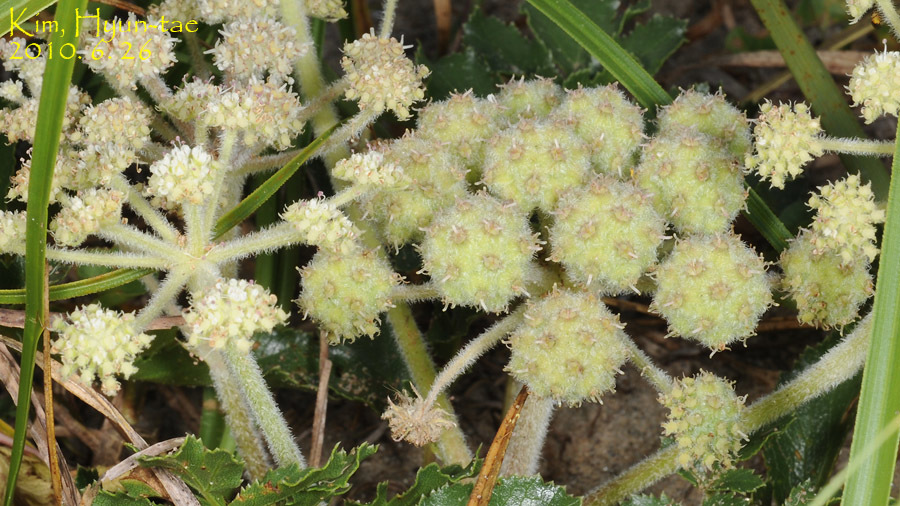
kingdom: Plantae
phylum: Tracheophyta
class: Magnoliopsida
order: Apiales
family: Apiaceae
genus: Glehnia
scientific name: Glehnia littoralis
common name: Beach silvertop
